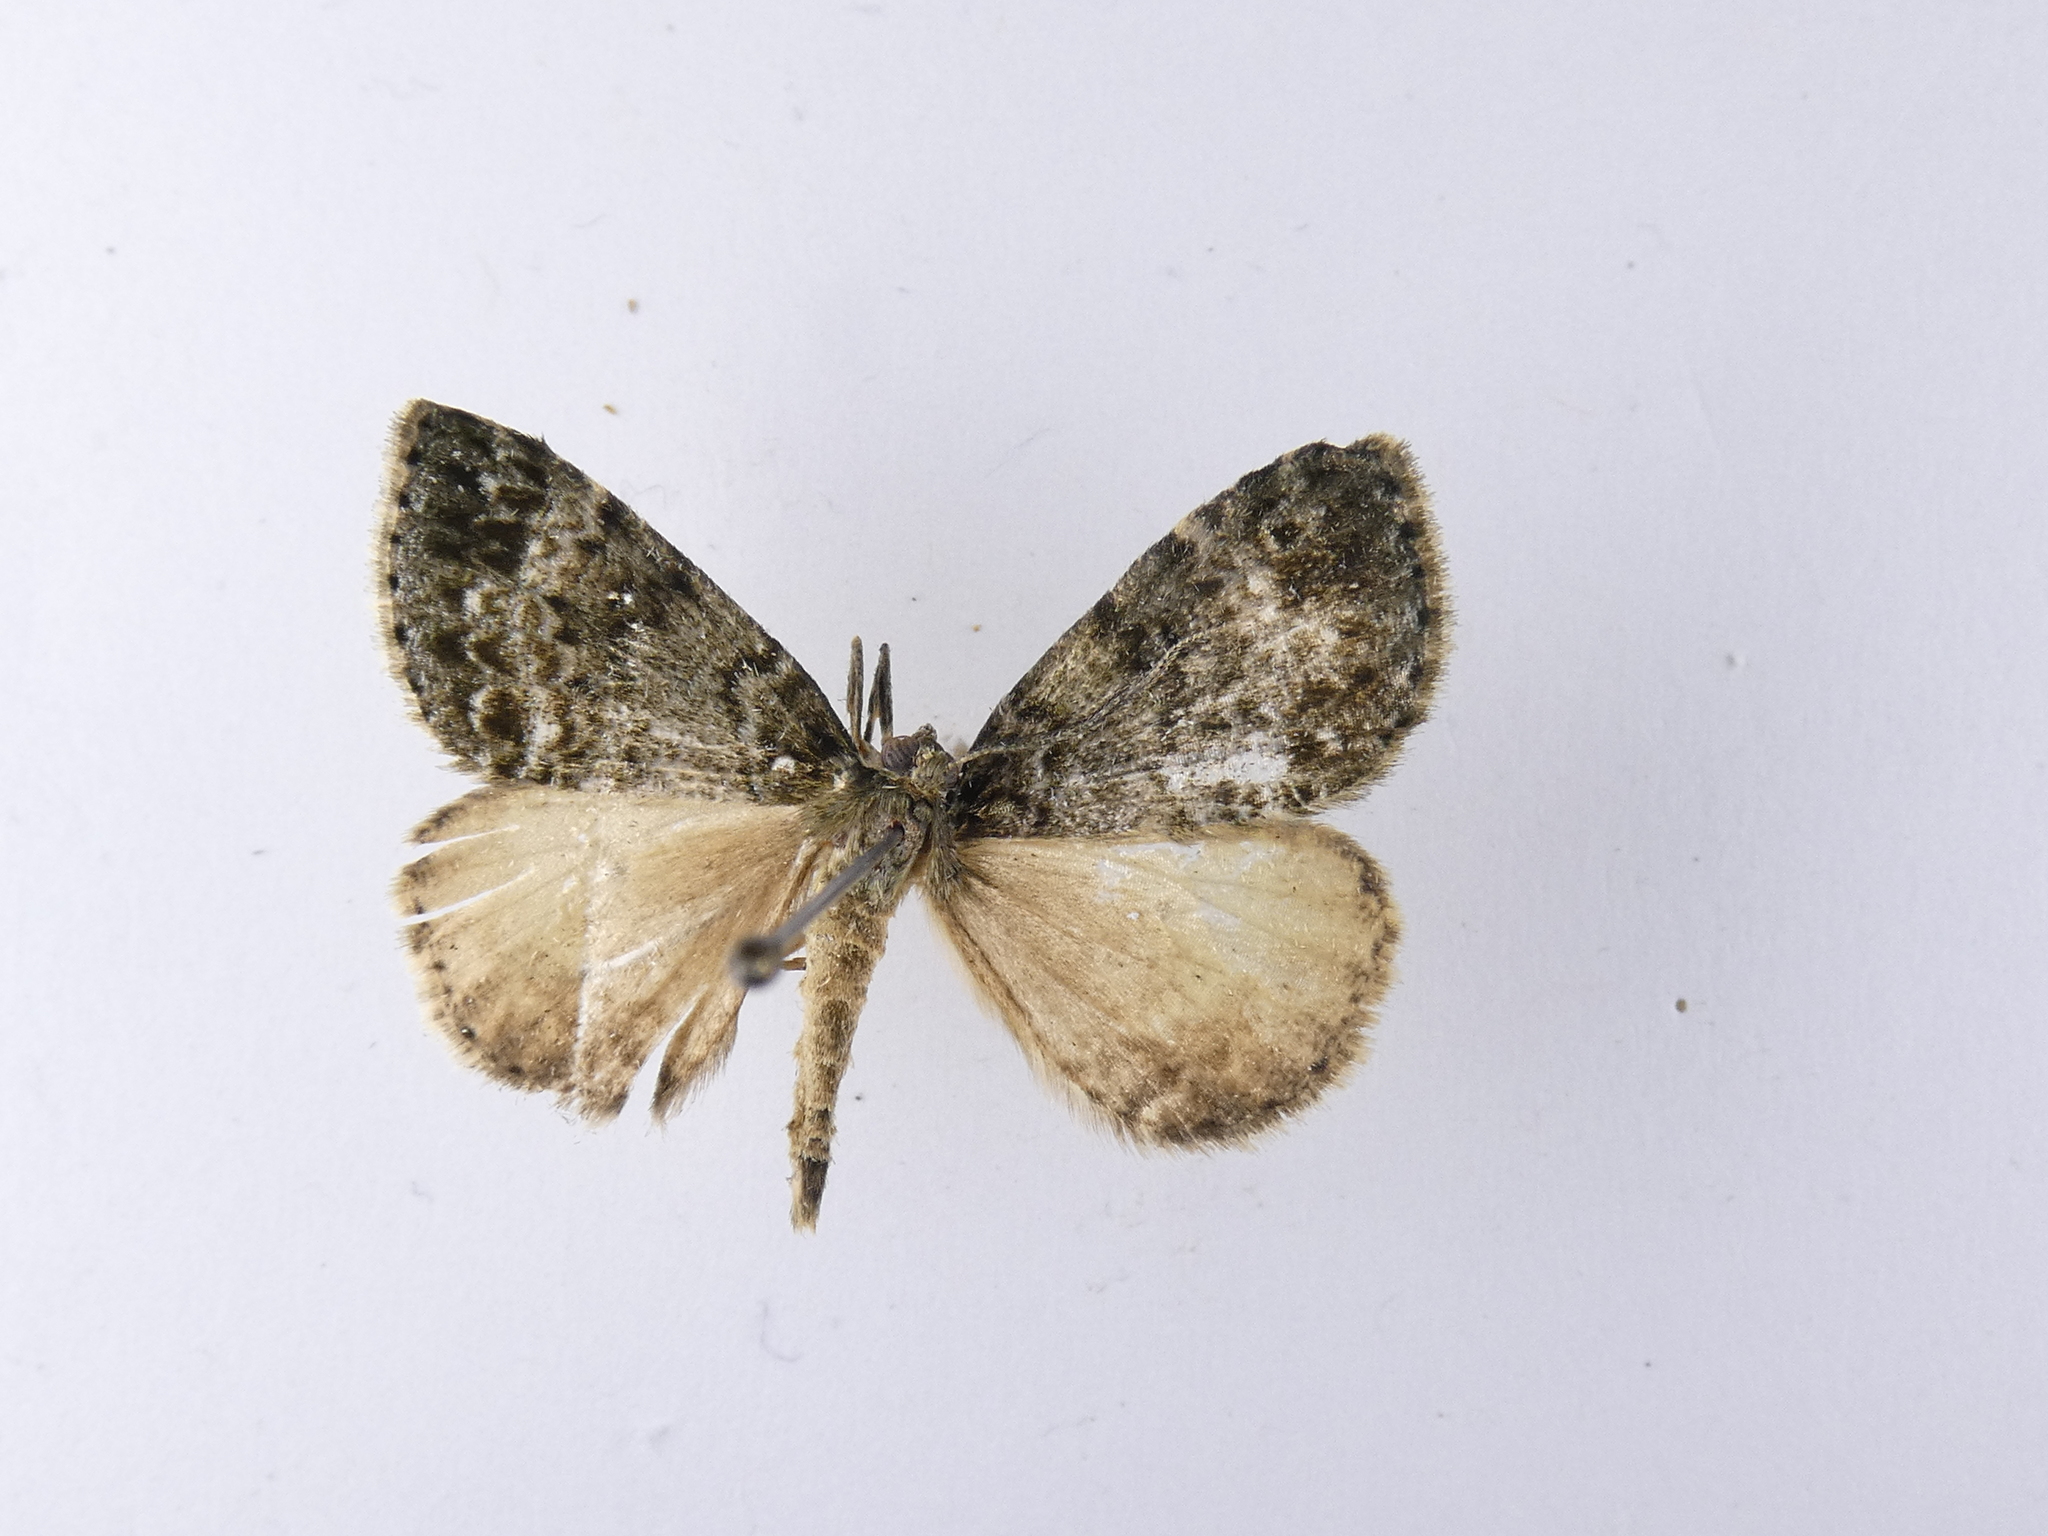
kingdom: Animalia
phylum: Arthropoda
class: Insecta
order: Lepidoptera
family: Geometridae
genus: Pseudocoremia
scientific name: Pseudocoremia indistincta
